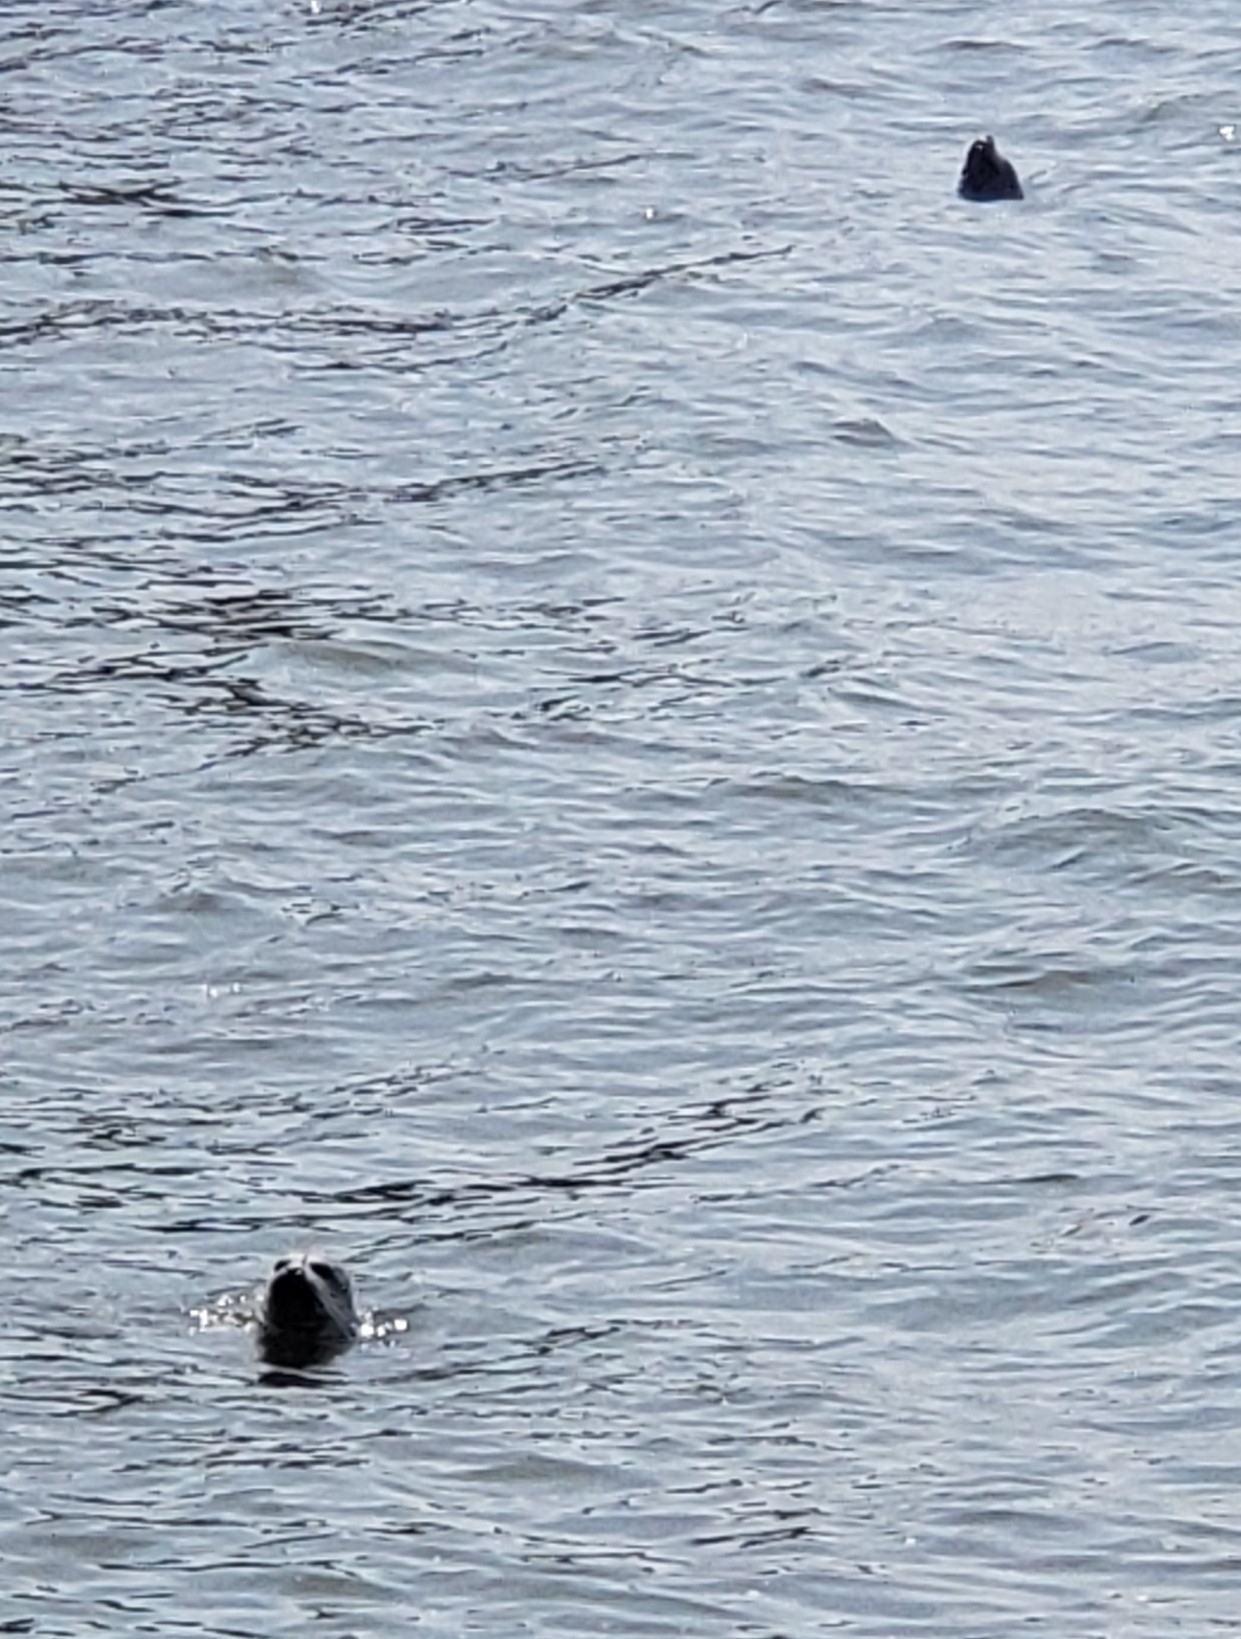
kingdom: Animalia
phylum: Chordata
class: Mammalia
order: Carnivora
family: Phocidae
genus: Phoca
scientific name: Phoca vitulina
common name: Harbor seal
